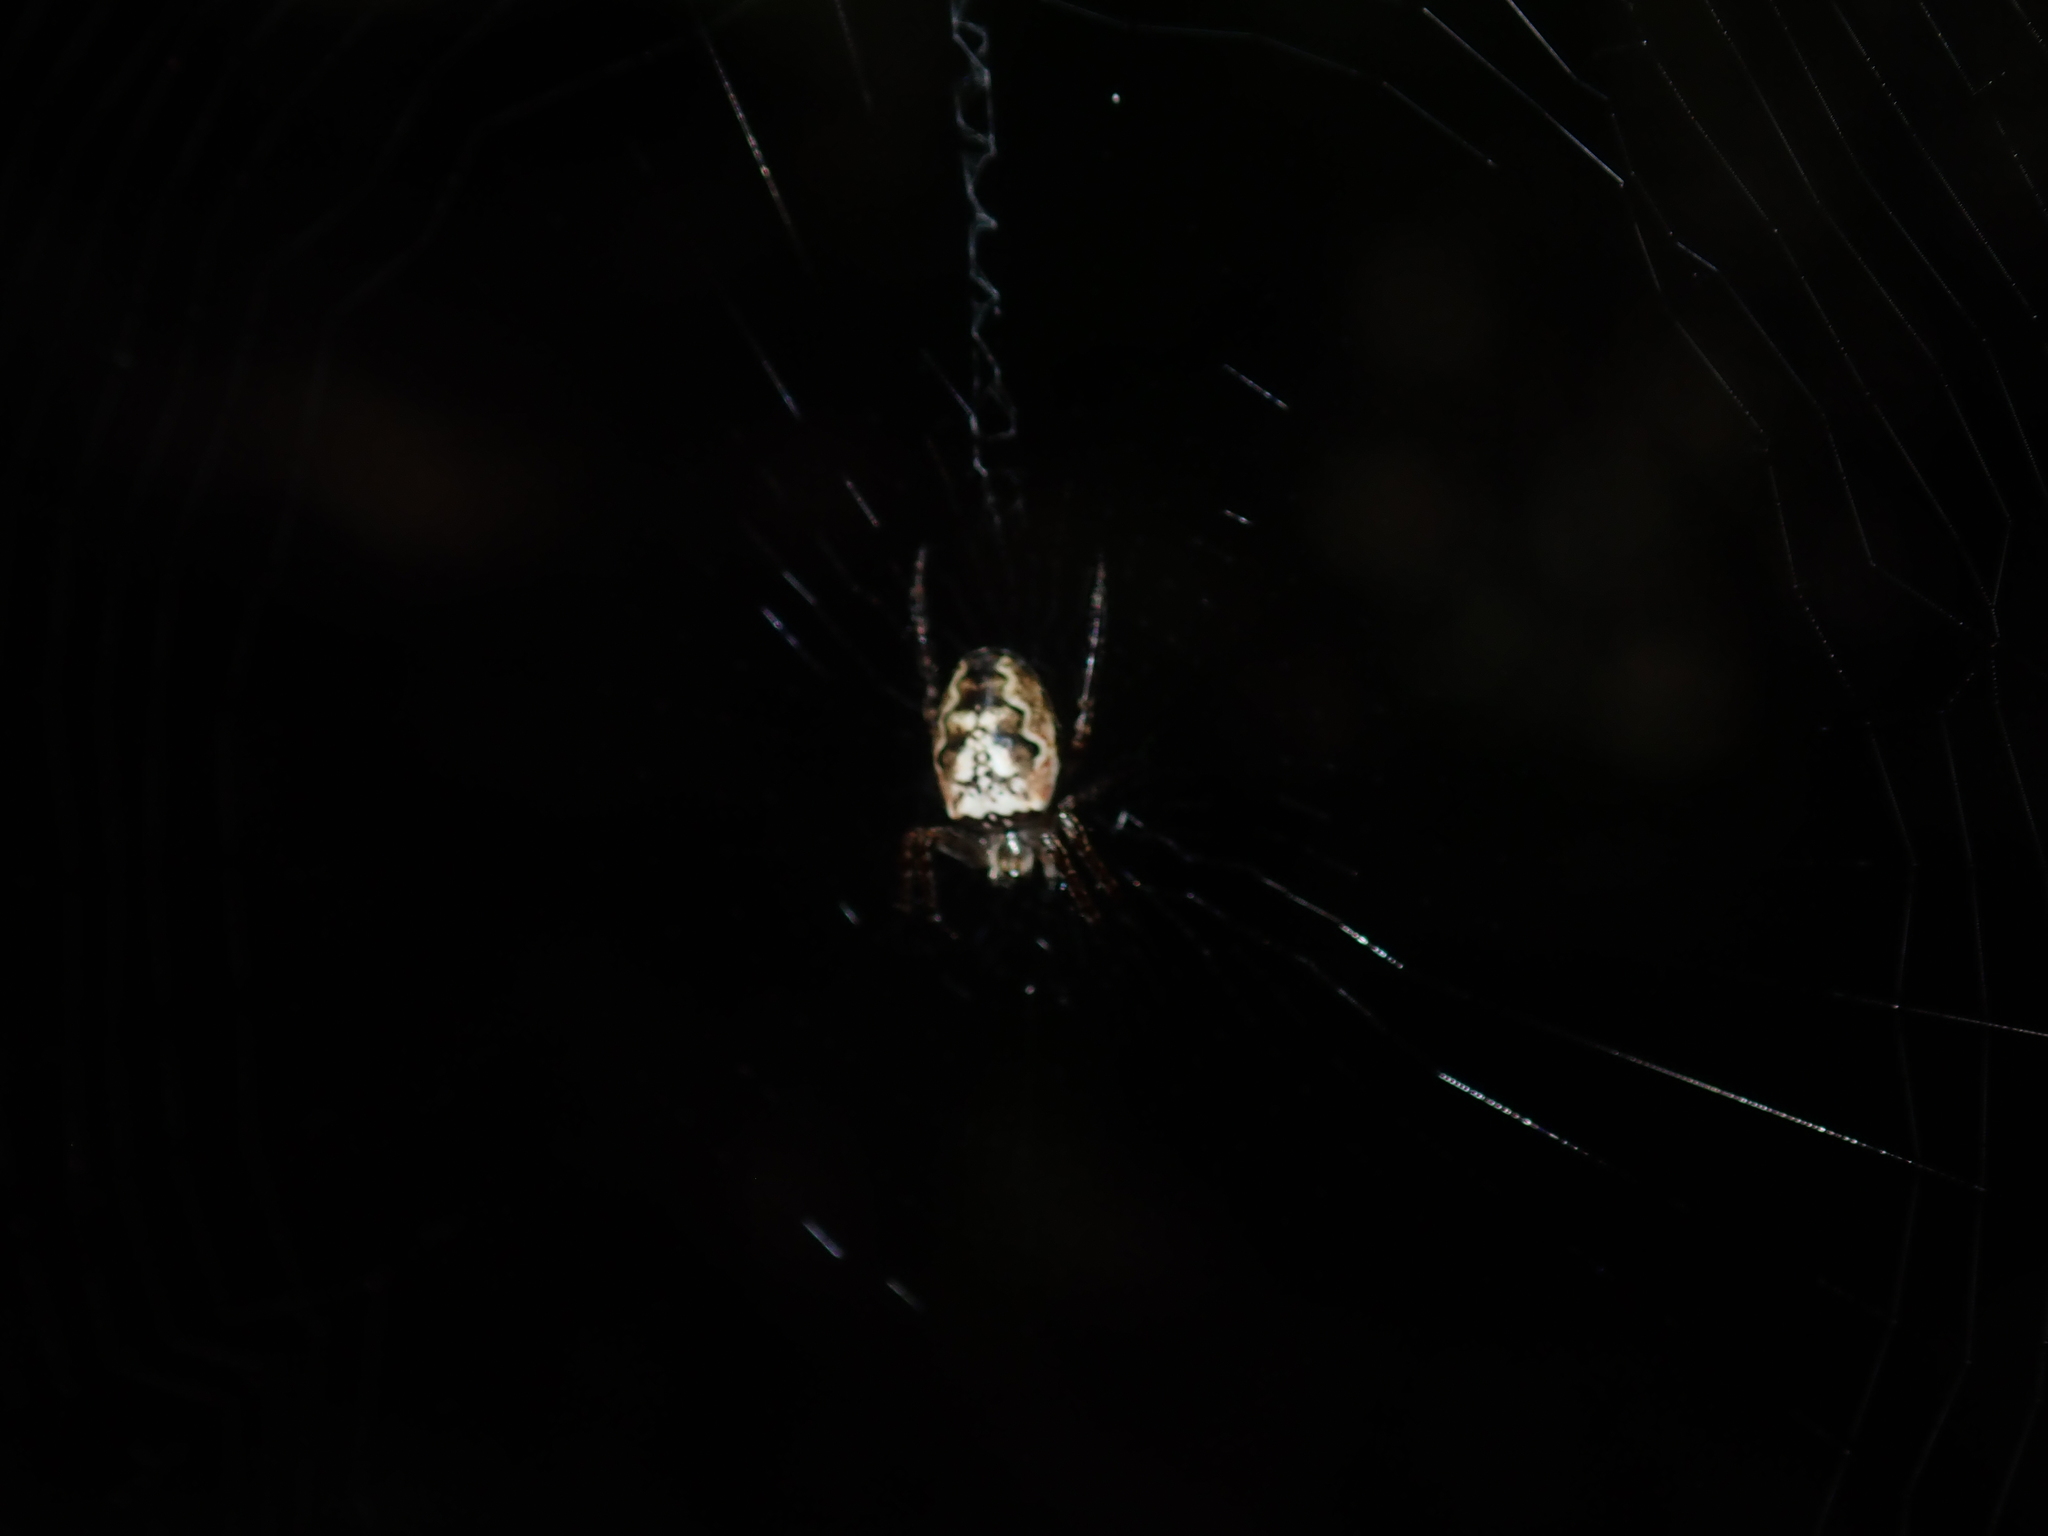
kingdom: Animalia
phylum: Arthropoda
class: Arachnida
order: Araneae
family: Araneidae
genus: Plebs
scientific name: Plebs eburnus
